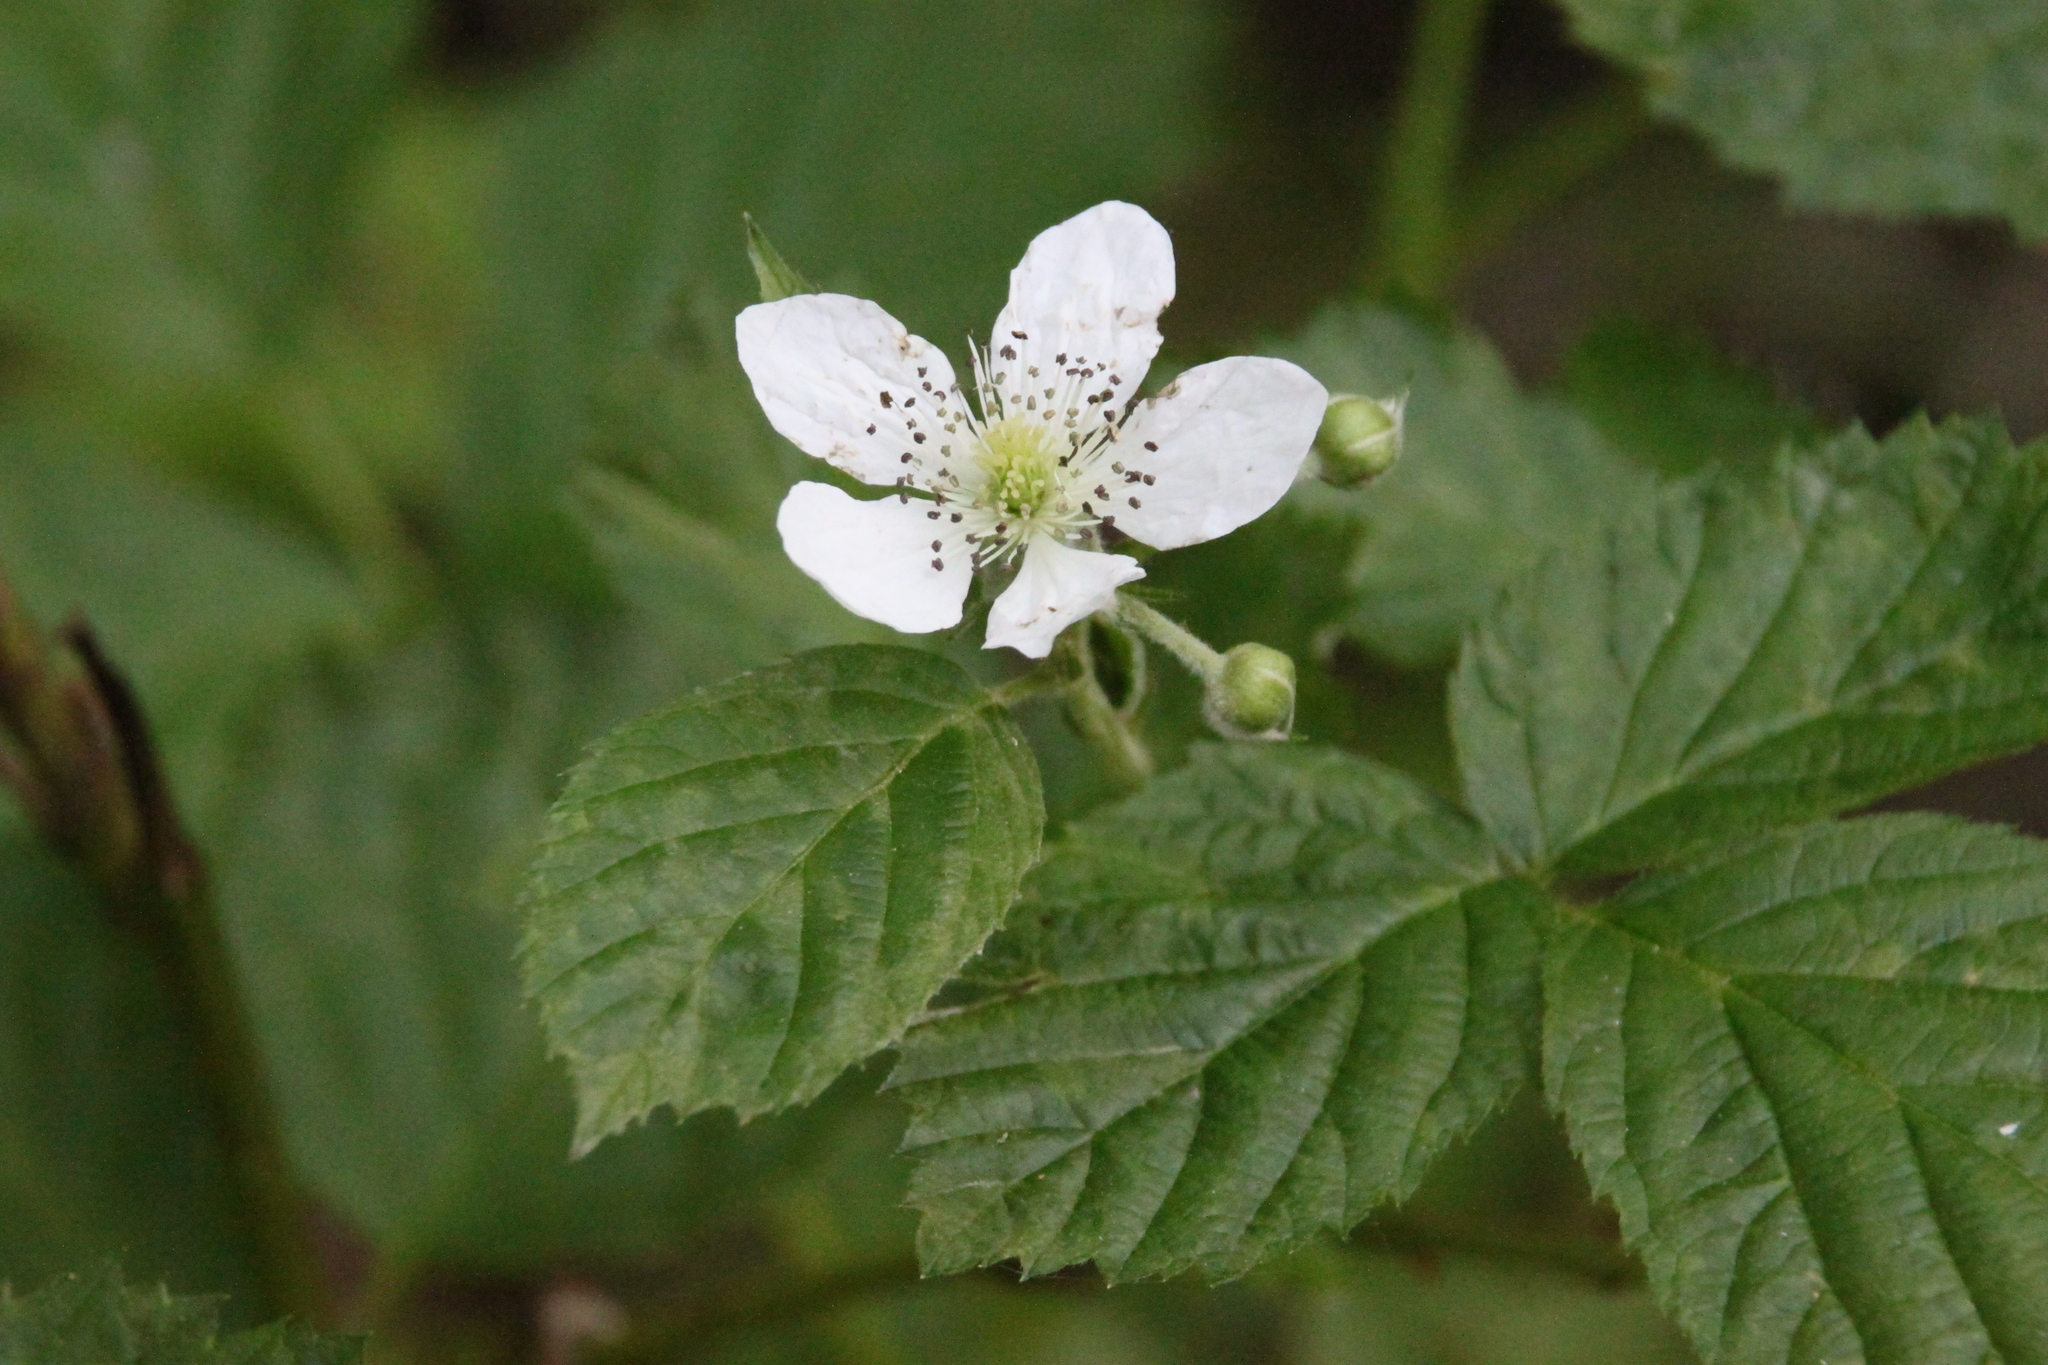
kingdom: Plantae
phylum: Tracheophyta
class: Magnoliopsida
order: Rosales
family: Rosaceae
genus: Rubus
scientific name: Rubus polonicus
